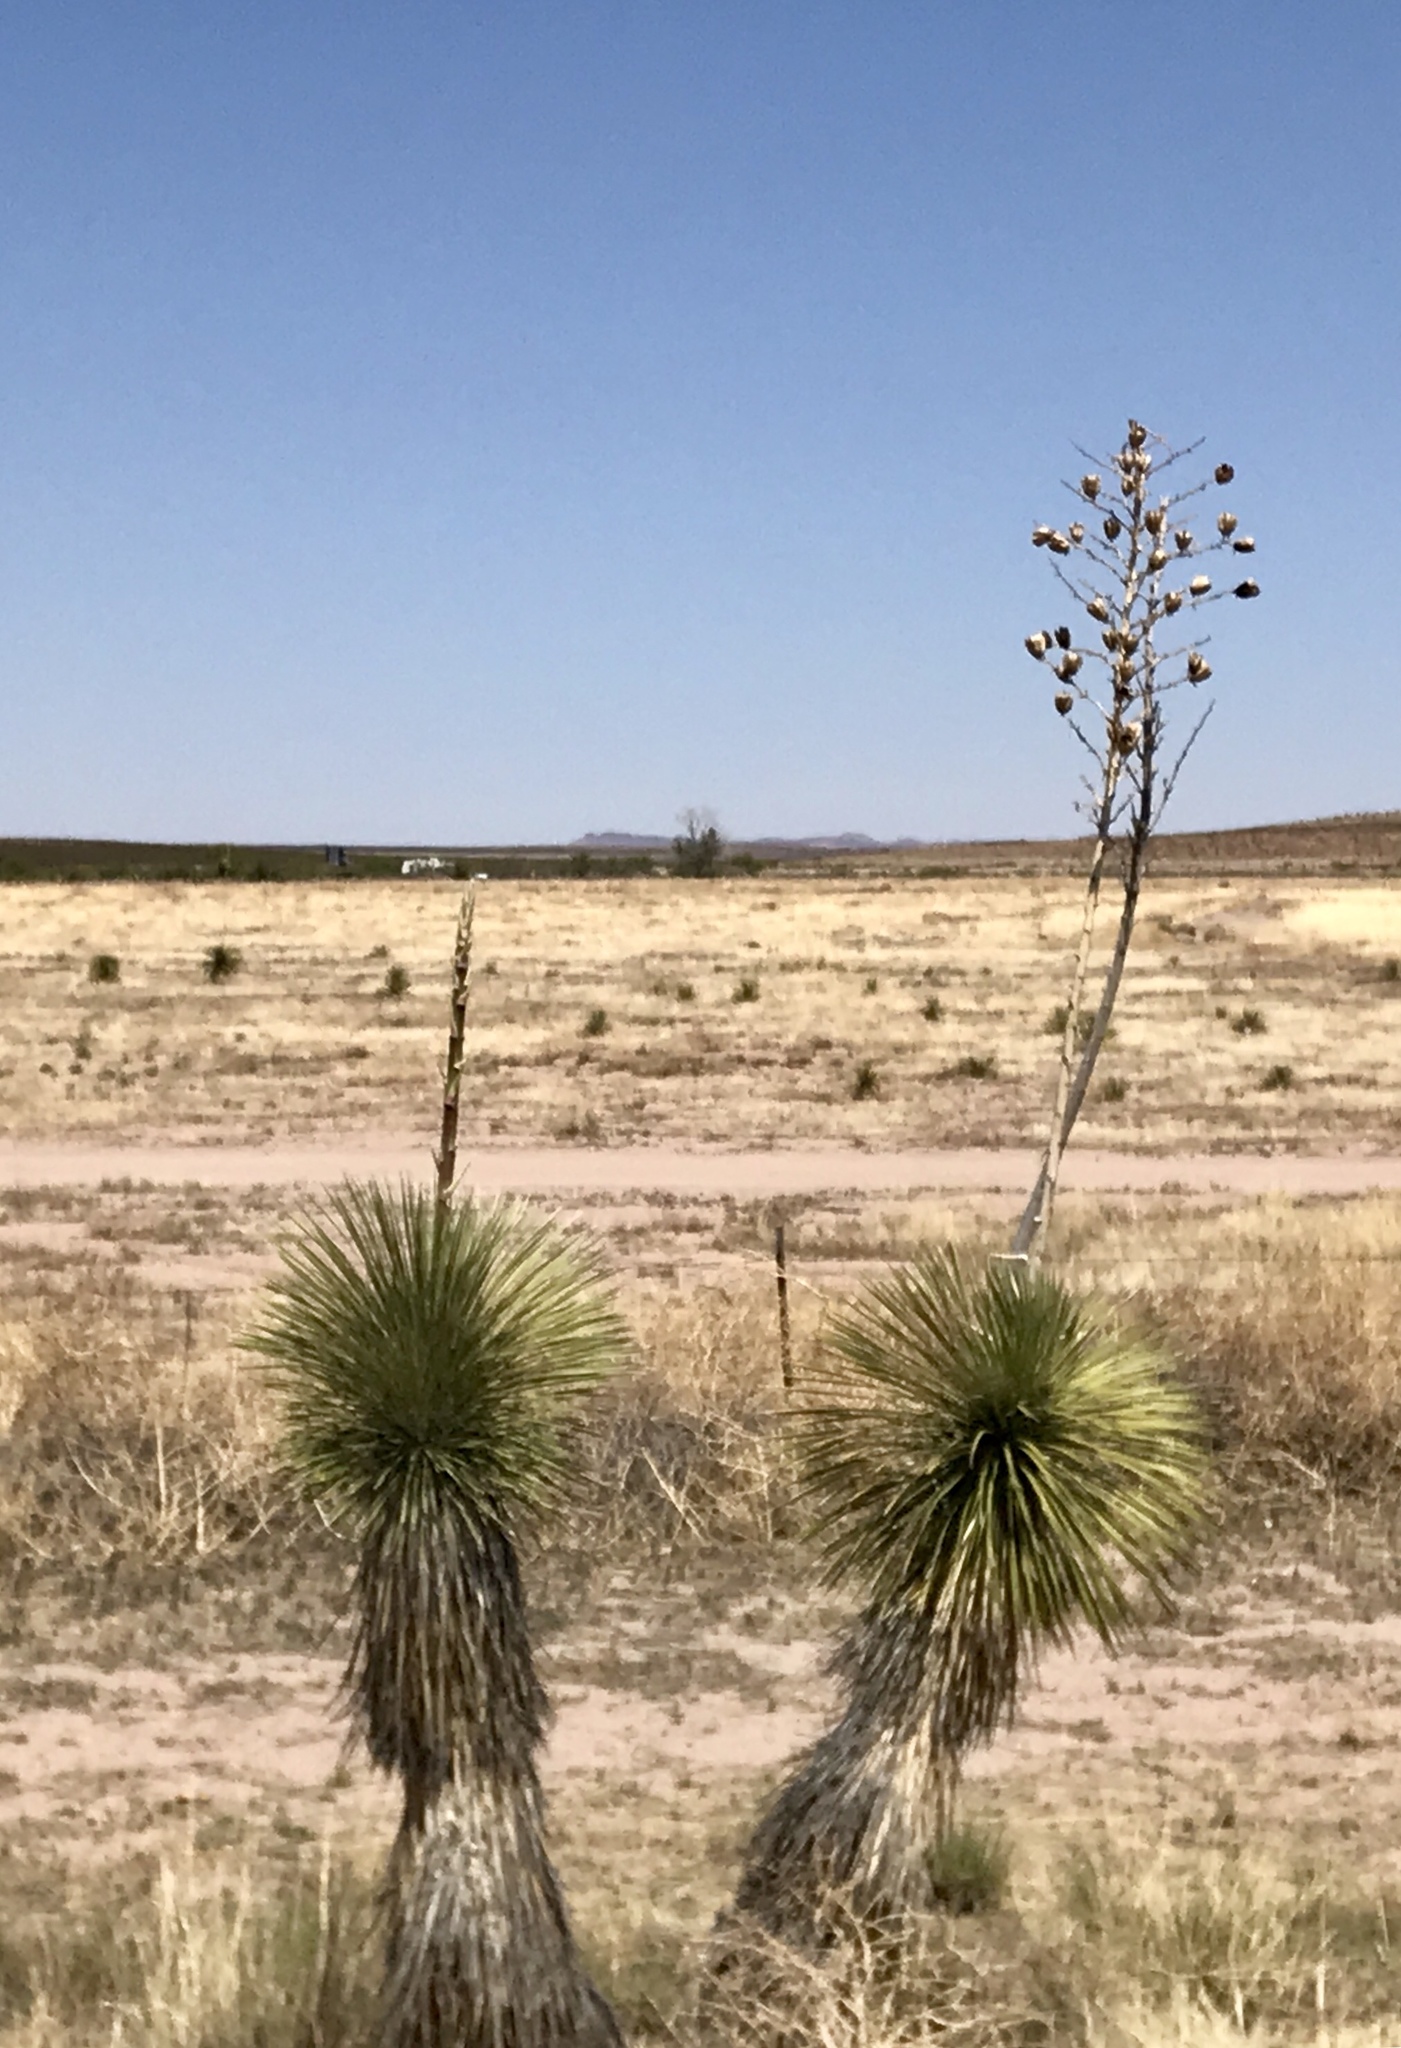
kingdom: Plantae
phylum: Tracheophyta
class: Liliopsida
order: Asparagales
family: Asparagaceae
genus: Yucca
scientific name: Yucca elata
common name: Palmella
